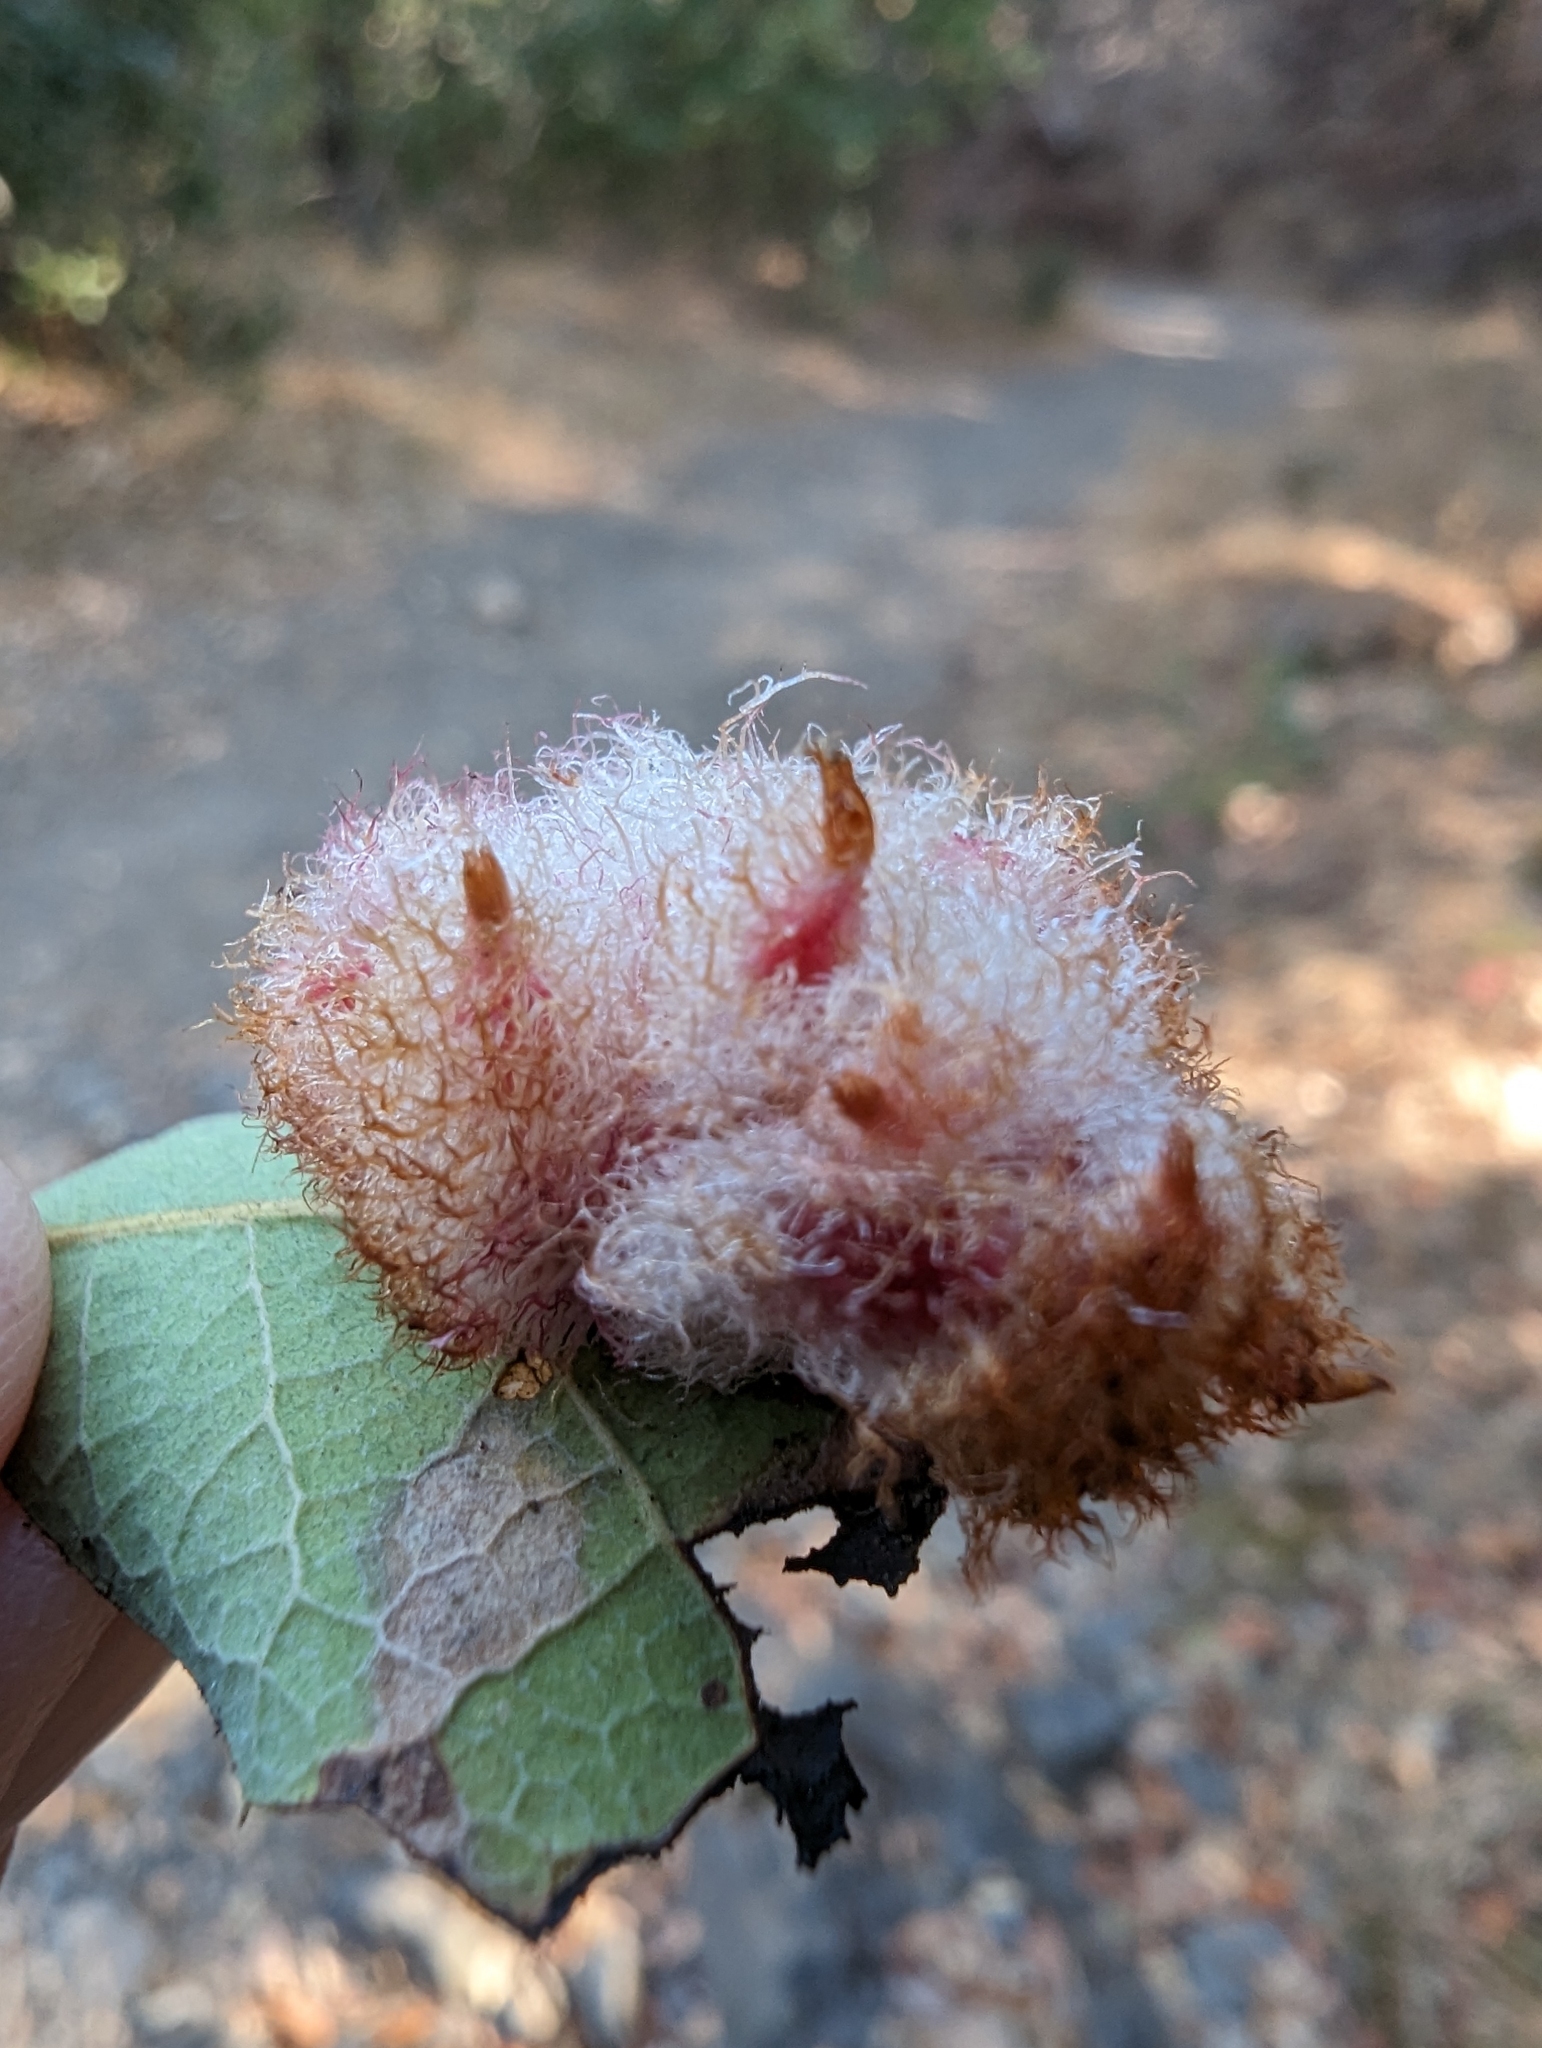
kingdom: Animalia
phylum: Arthropoda
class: Insecta
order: Hymenoptera
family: Cynipidae
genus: Andricus
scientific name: Andricus
